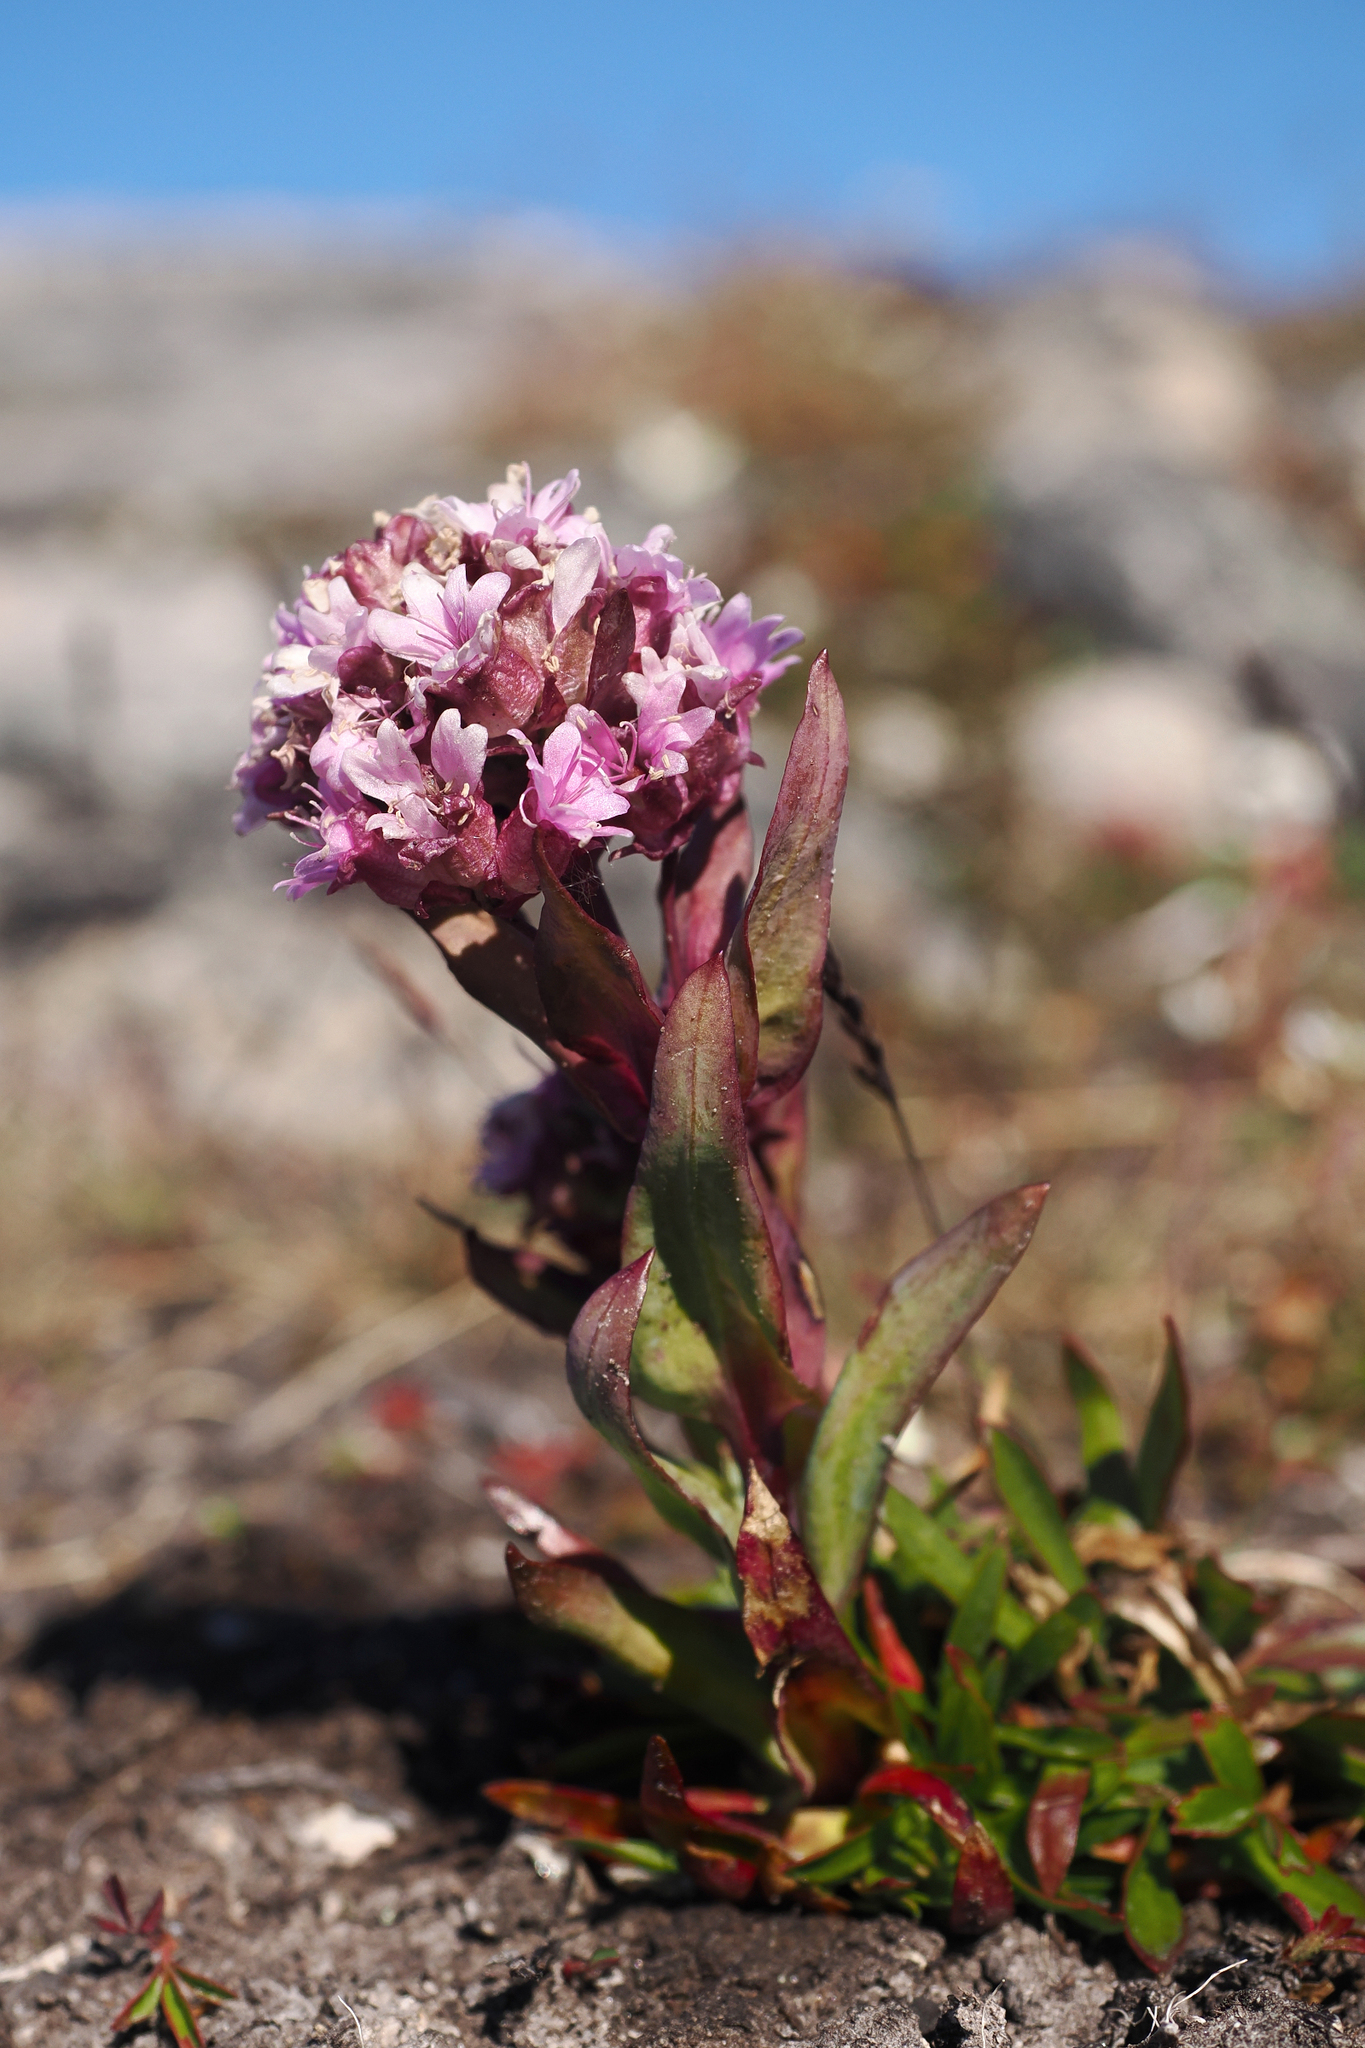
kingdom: Plantae
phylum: Tracheophyta
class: Magnoliopsida
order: Caryophyllales
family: Caryophyllaceae
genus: Viscaria
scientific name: Viscaria alpina
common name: Alpine campion
